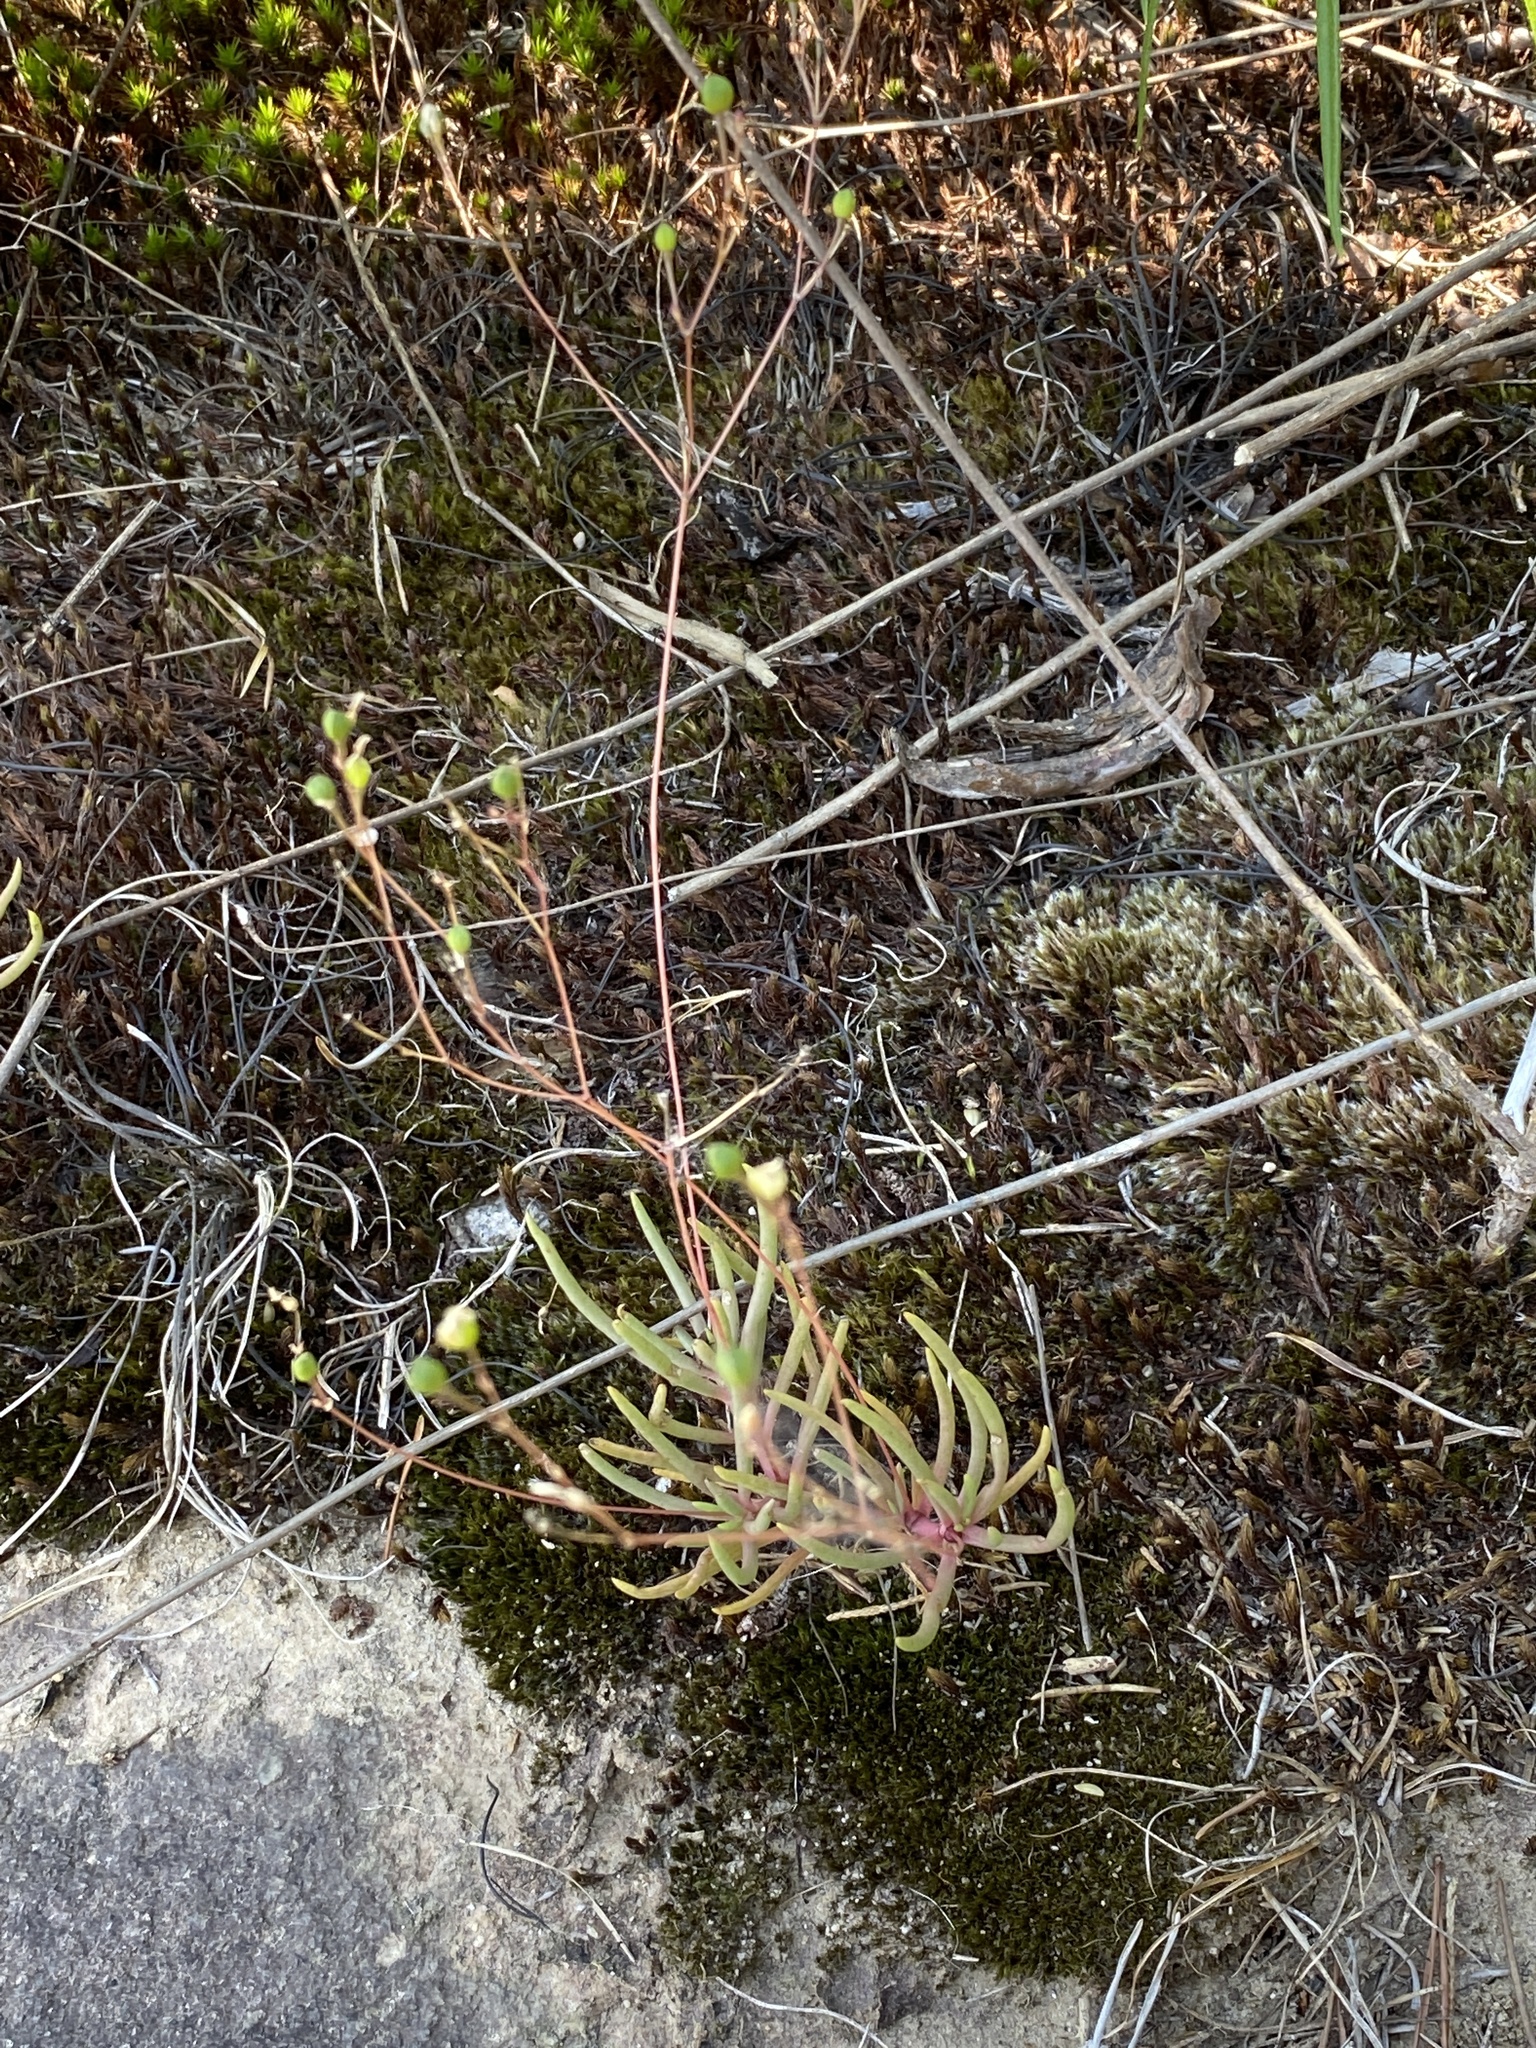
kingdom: Plantae
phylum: Tracheophyta
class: Magnoliopsida
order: Caryophyllales
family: Montiaceae
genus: Phemeranthus
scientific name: Phemeranthus teretifolius
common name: Quill fameflower
